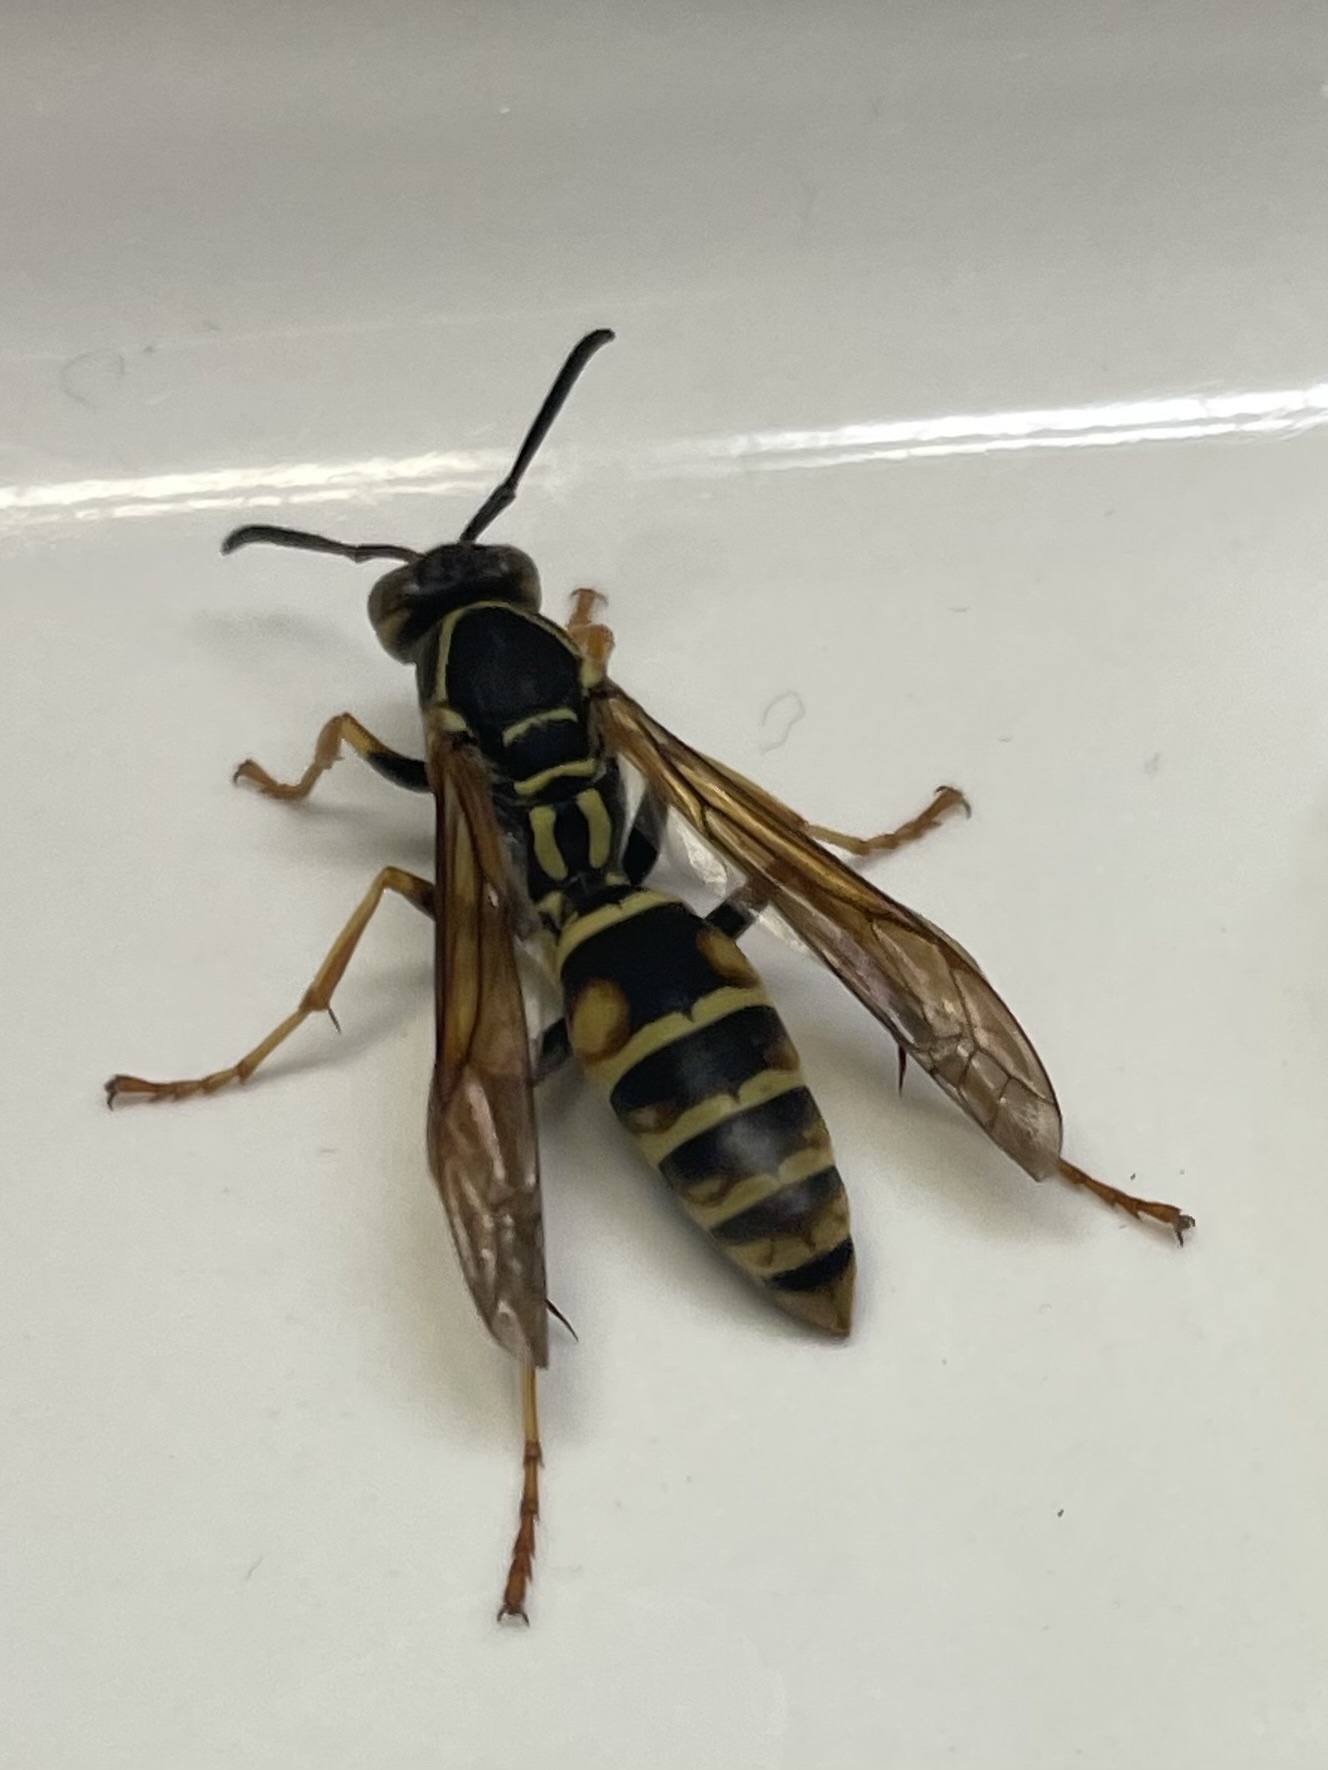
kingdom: Animalia
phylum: Arthropoda
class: Insecta
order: Hymenoptera
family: Eumenidae
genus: Polistes
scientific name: Polistes fuscatus
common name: Dark paper wasp
